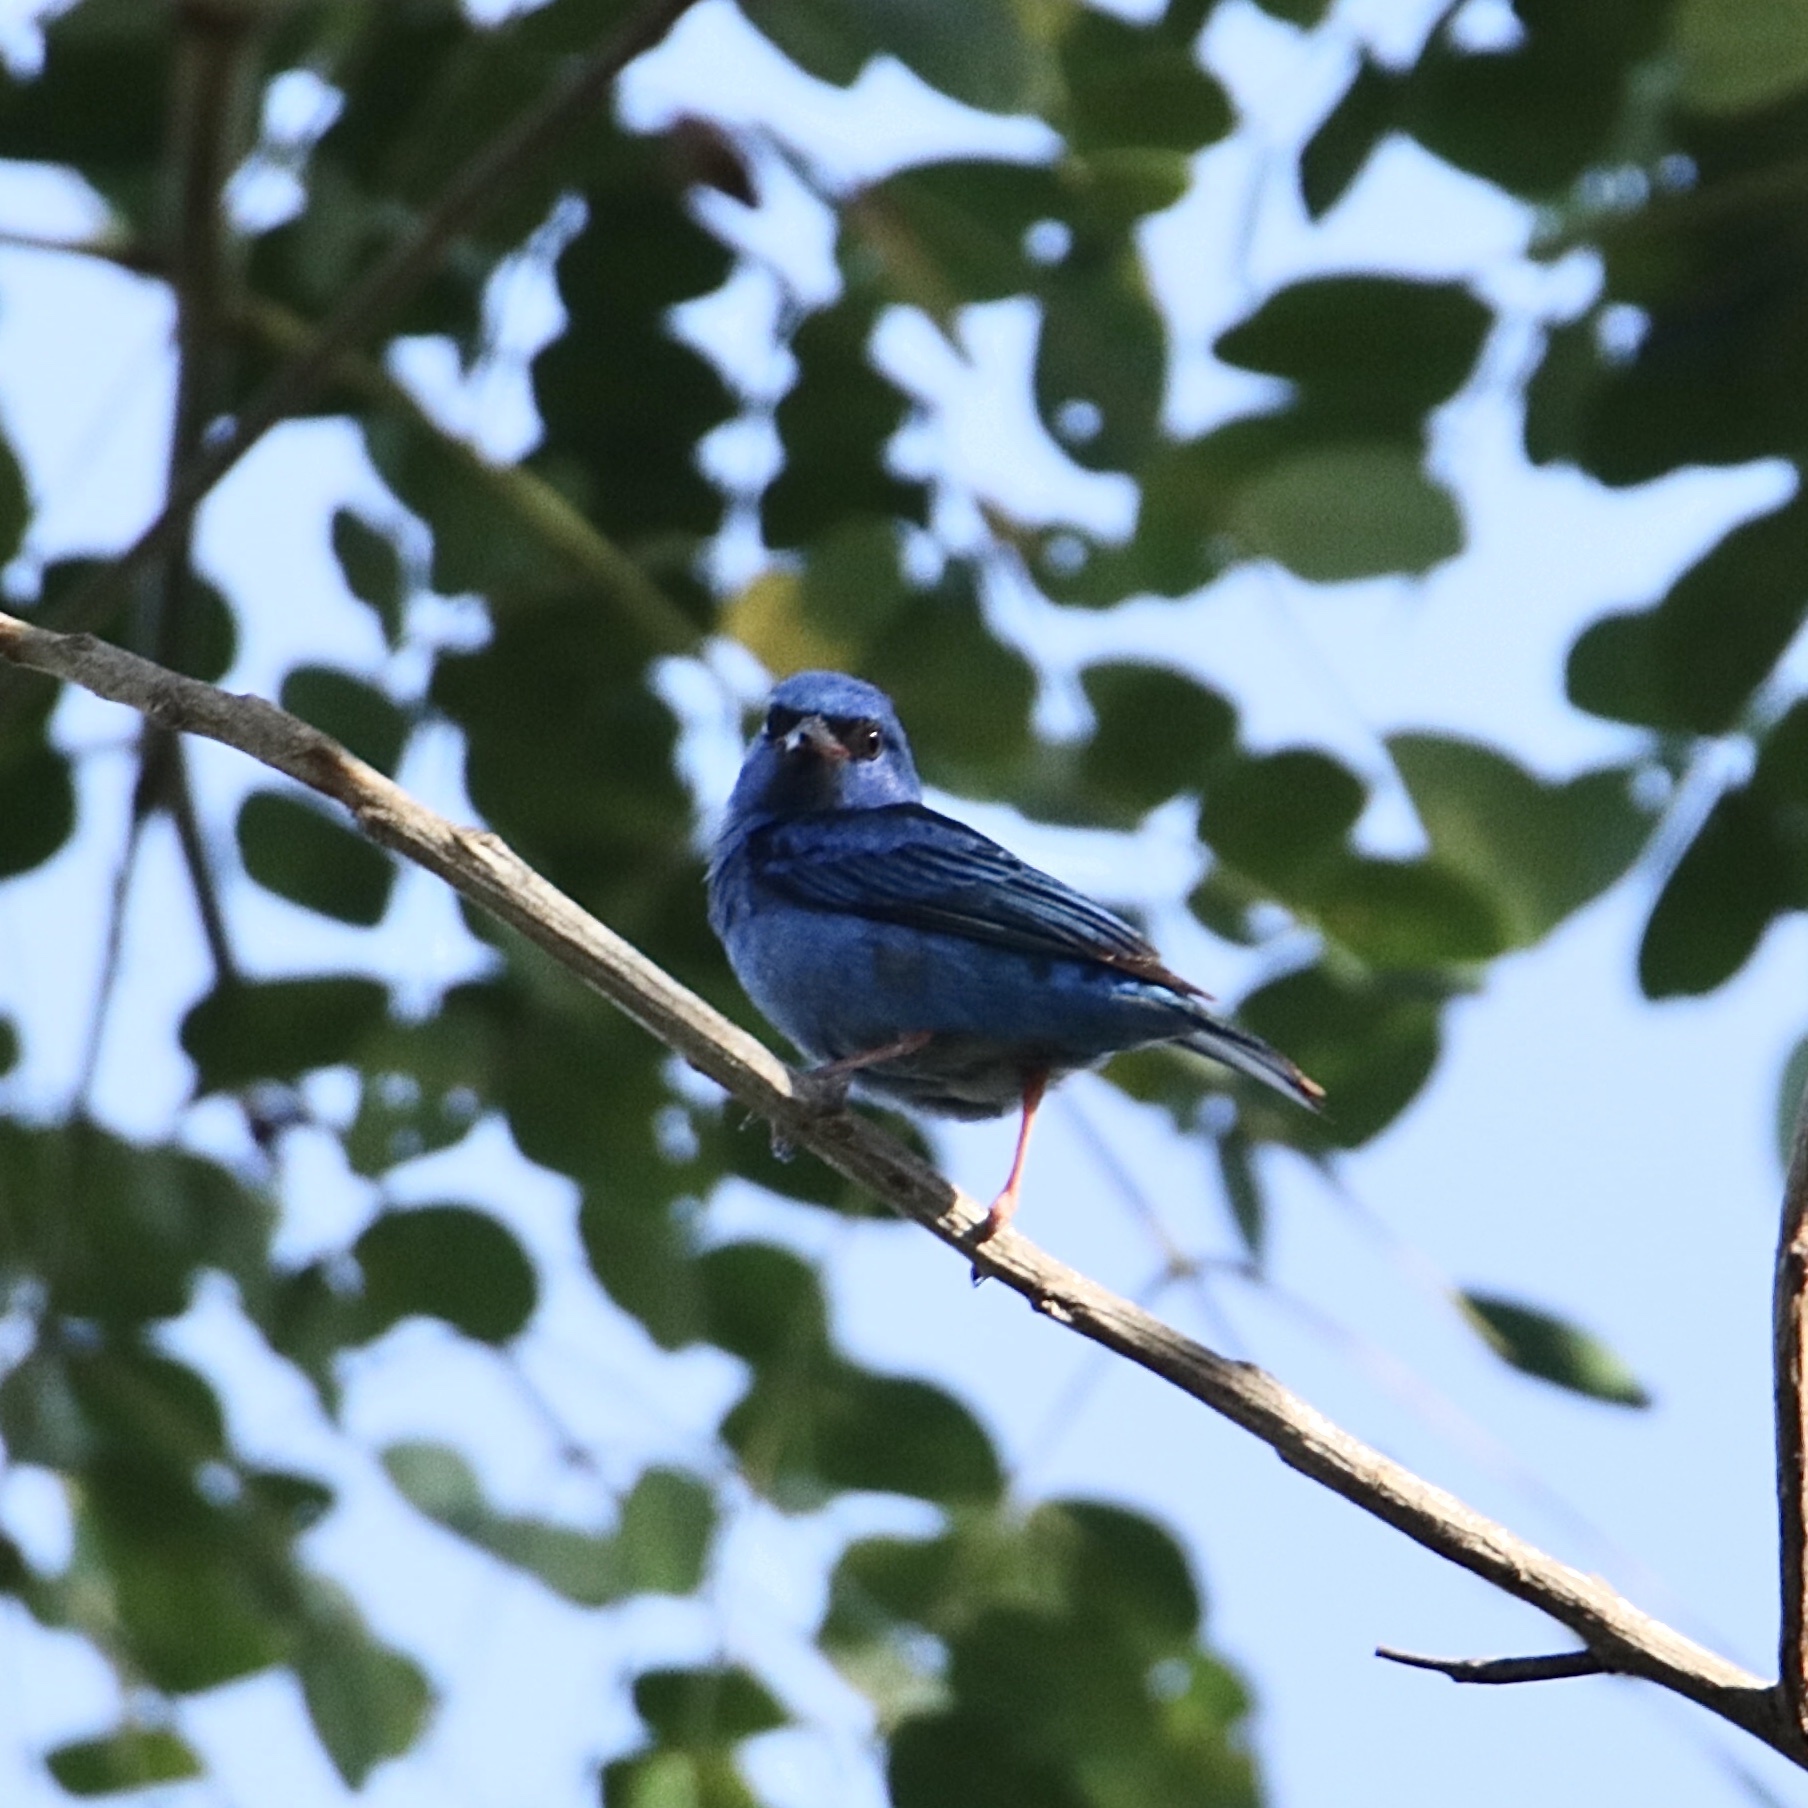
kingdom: Animalia
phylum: Chordata
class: Aves
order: Passeriformes
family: Thraupidae
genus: Dacnis
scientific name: Dacnis cayana
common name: Blue dacnis
